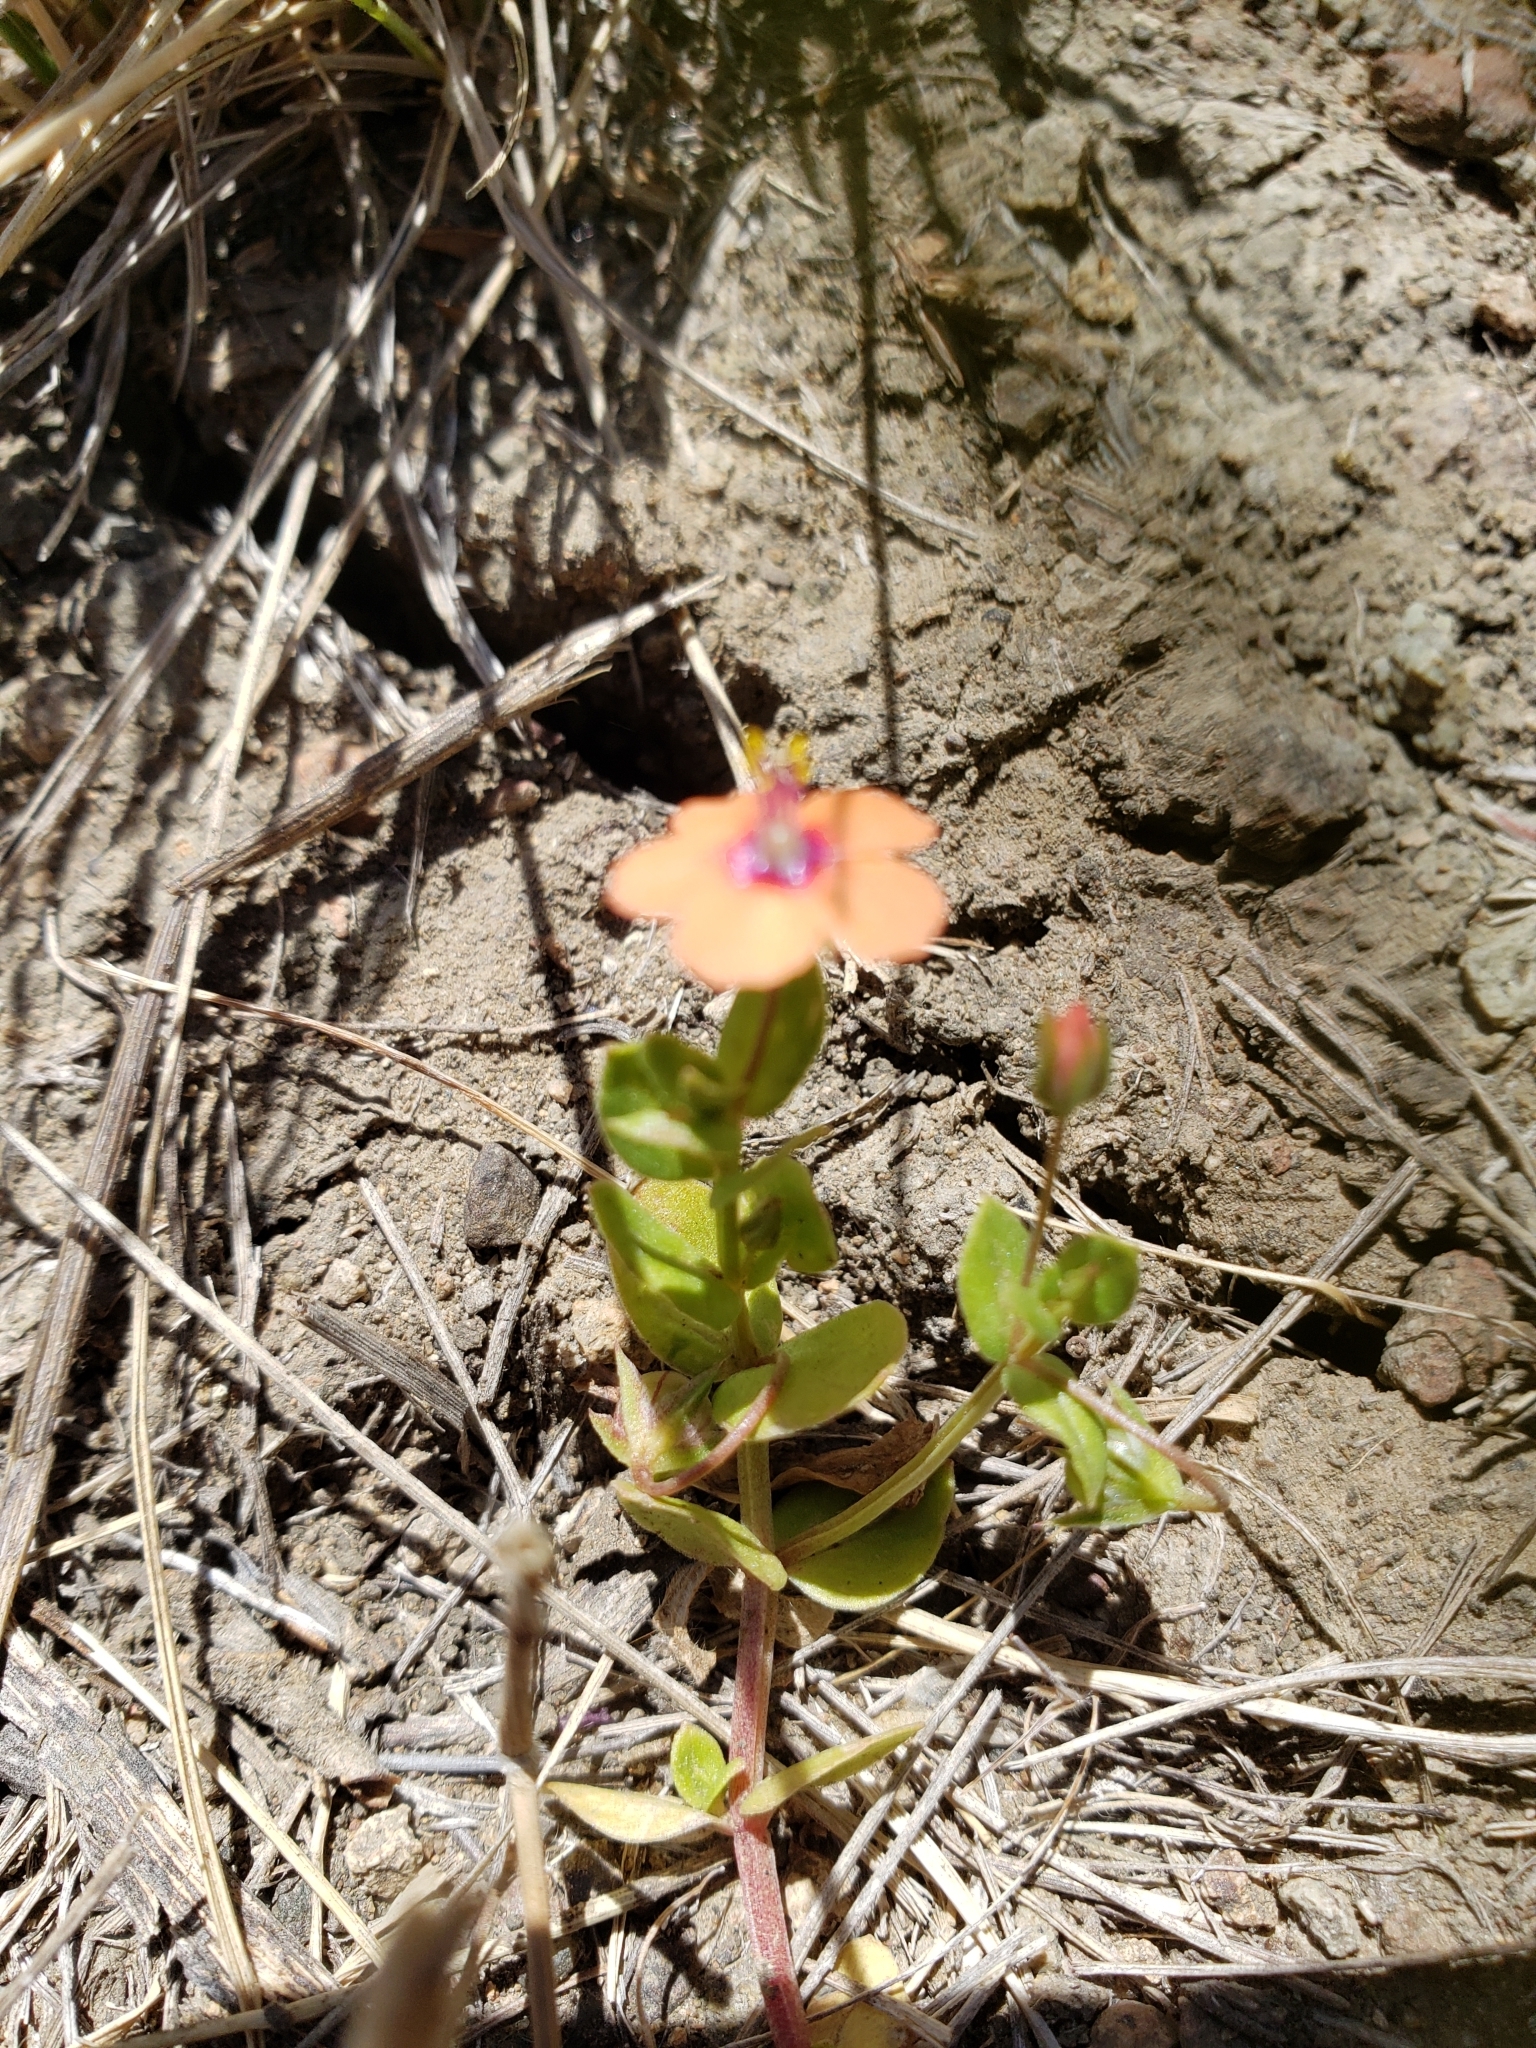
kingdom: Plantae
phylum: Tracheophyta
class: Magnoliopsida
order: Ericales
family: Primulaceae
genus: Lysimachia
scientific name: Lysimachia arvensis
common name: Scarlet pimpernel
